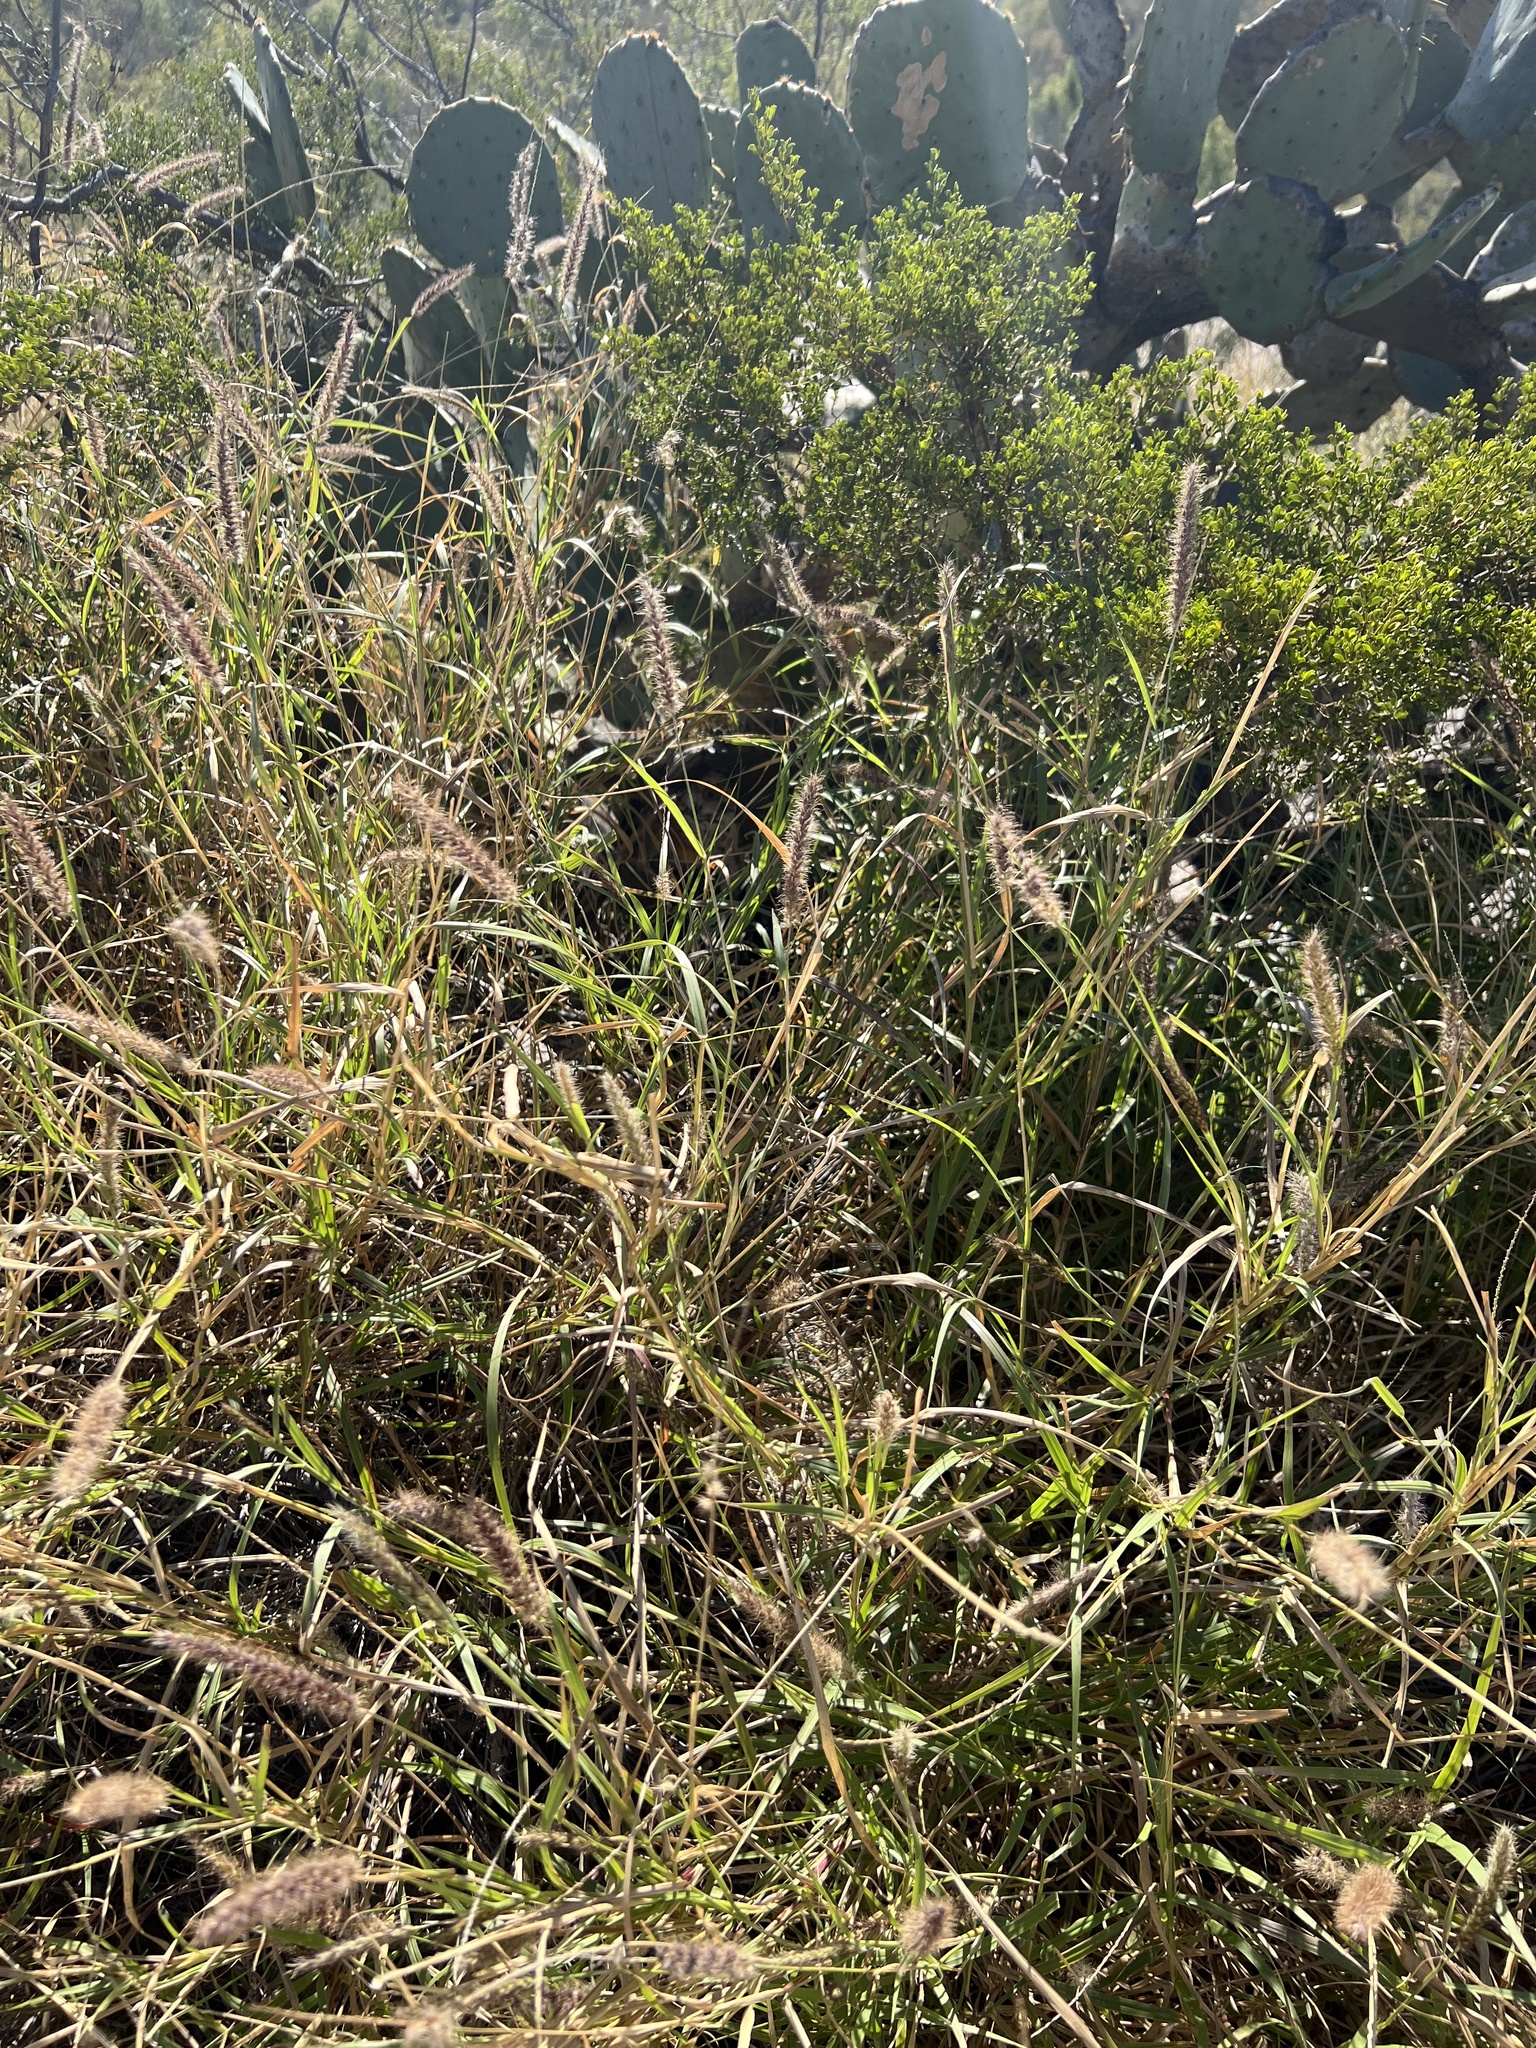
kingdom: Plantae
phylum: Tracheophyta
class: Liliopsida
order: Poales
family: Poaceae
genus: Cenchrus
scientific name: Cenchrus ciliaris
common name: Buffelgrass
